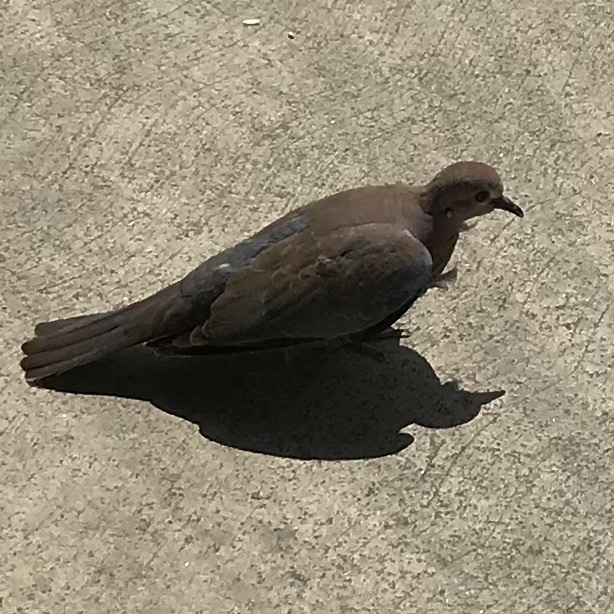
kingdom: Animalia
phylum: Chordata
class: Aves
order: Columbiformes
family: Columbidae
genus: Spilopelia
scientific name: Spilopelia senegalensis
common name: Laughing dove
